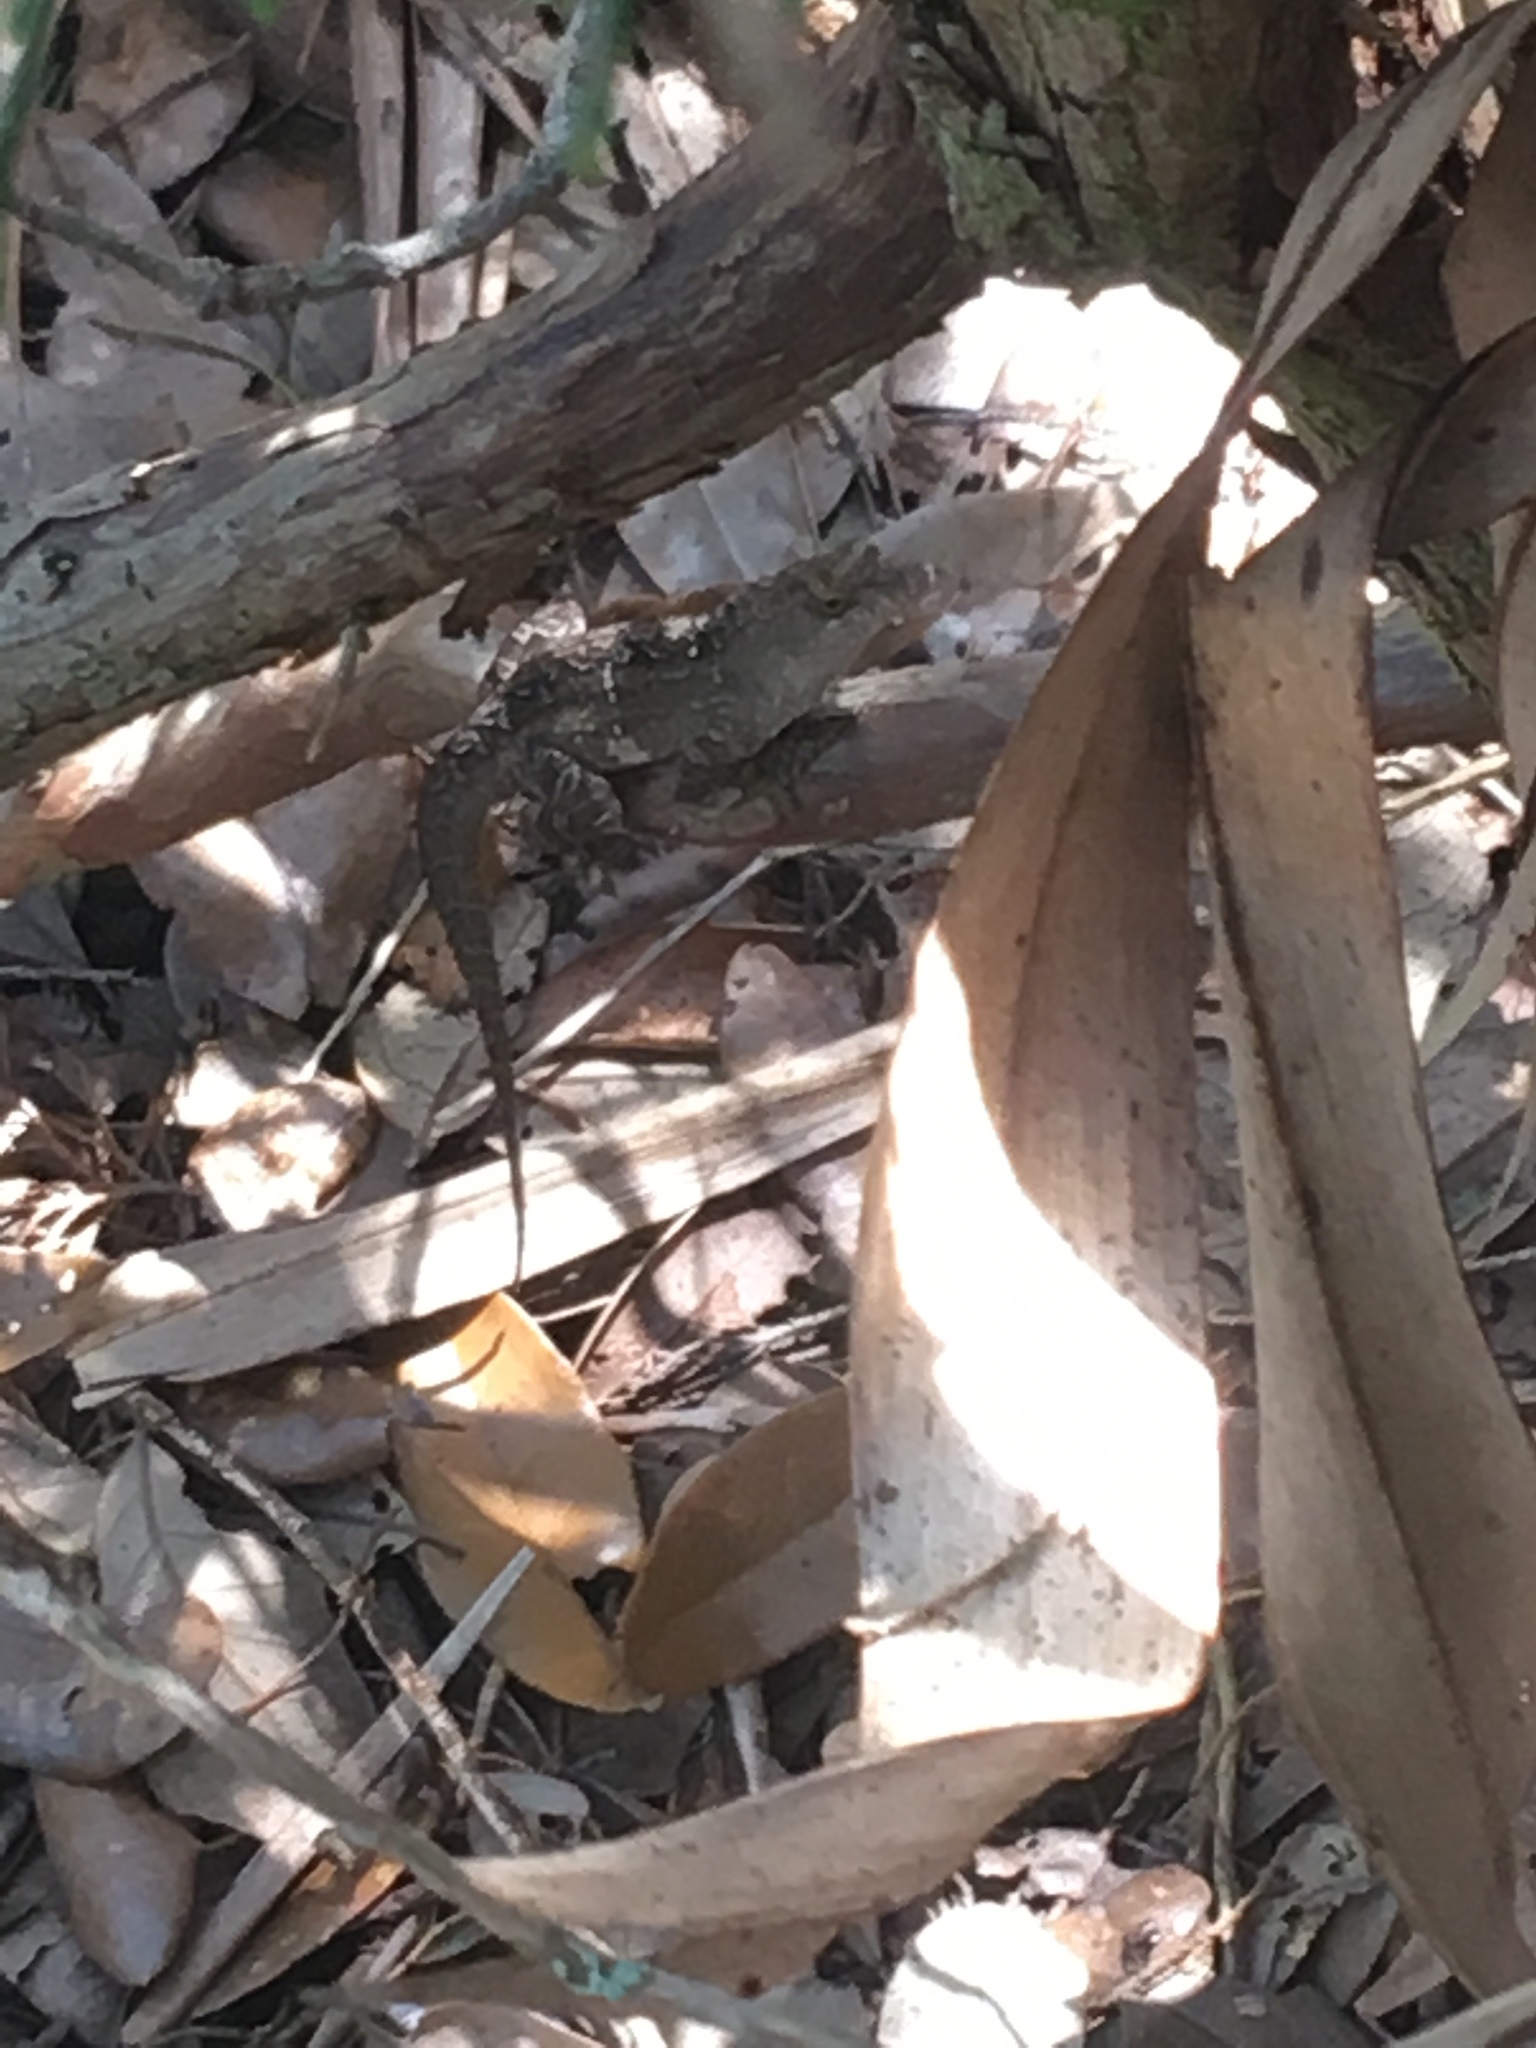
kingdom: Animalia
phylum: Chordata
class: Squamata
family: Dactyloidae
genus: Anolis
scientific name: Anolis sagrei
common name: Brown anole
